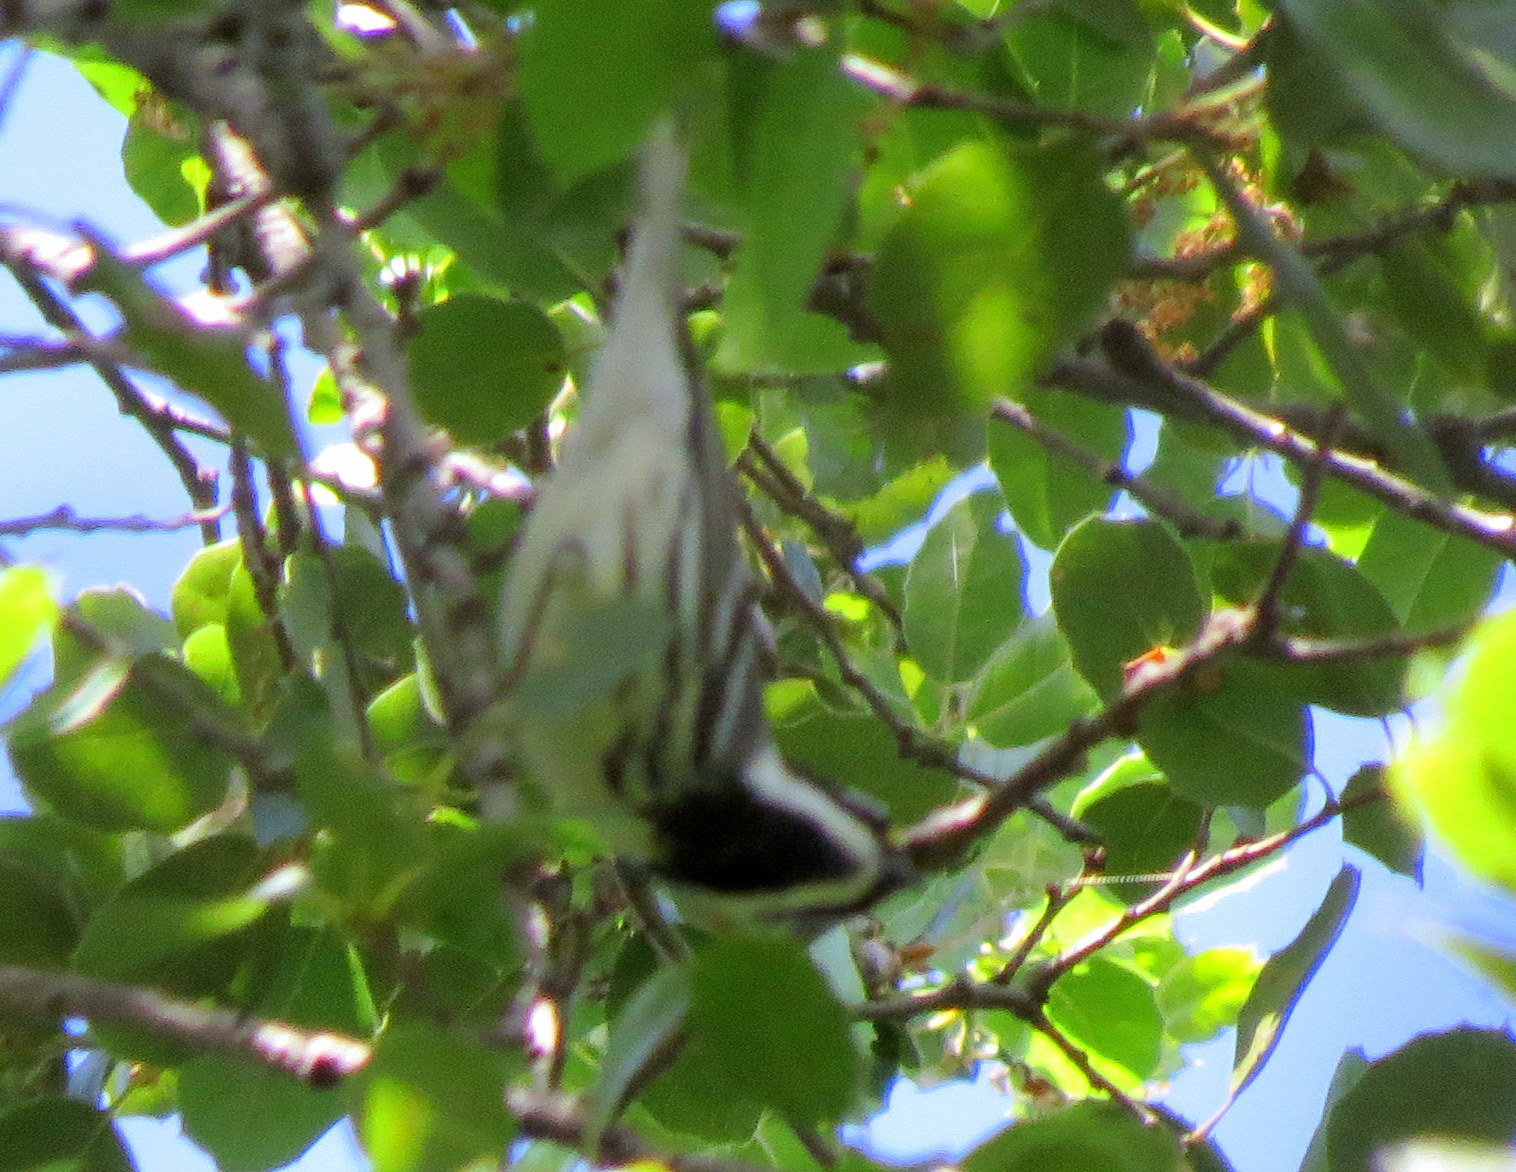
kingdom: Animalia
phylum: Chordata
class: Aves
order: Passeriformes
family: Parulidae
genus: Setophaga
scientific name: Setophaga nigrescens
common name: Black-throated gray warbler
